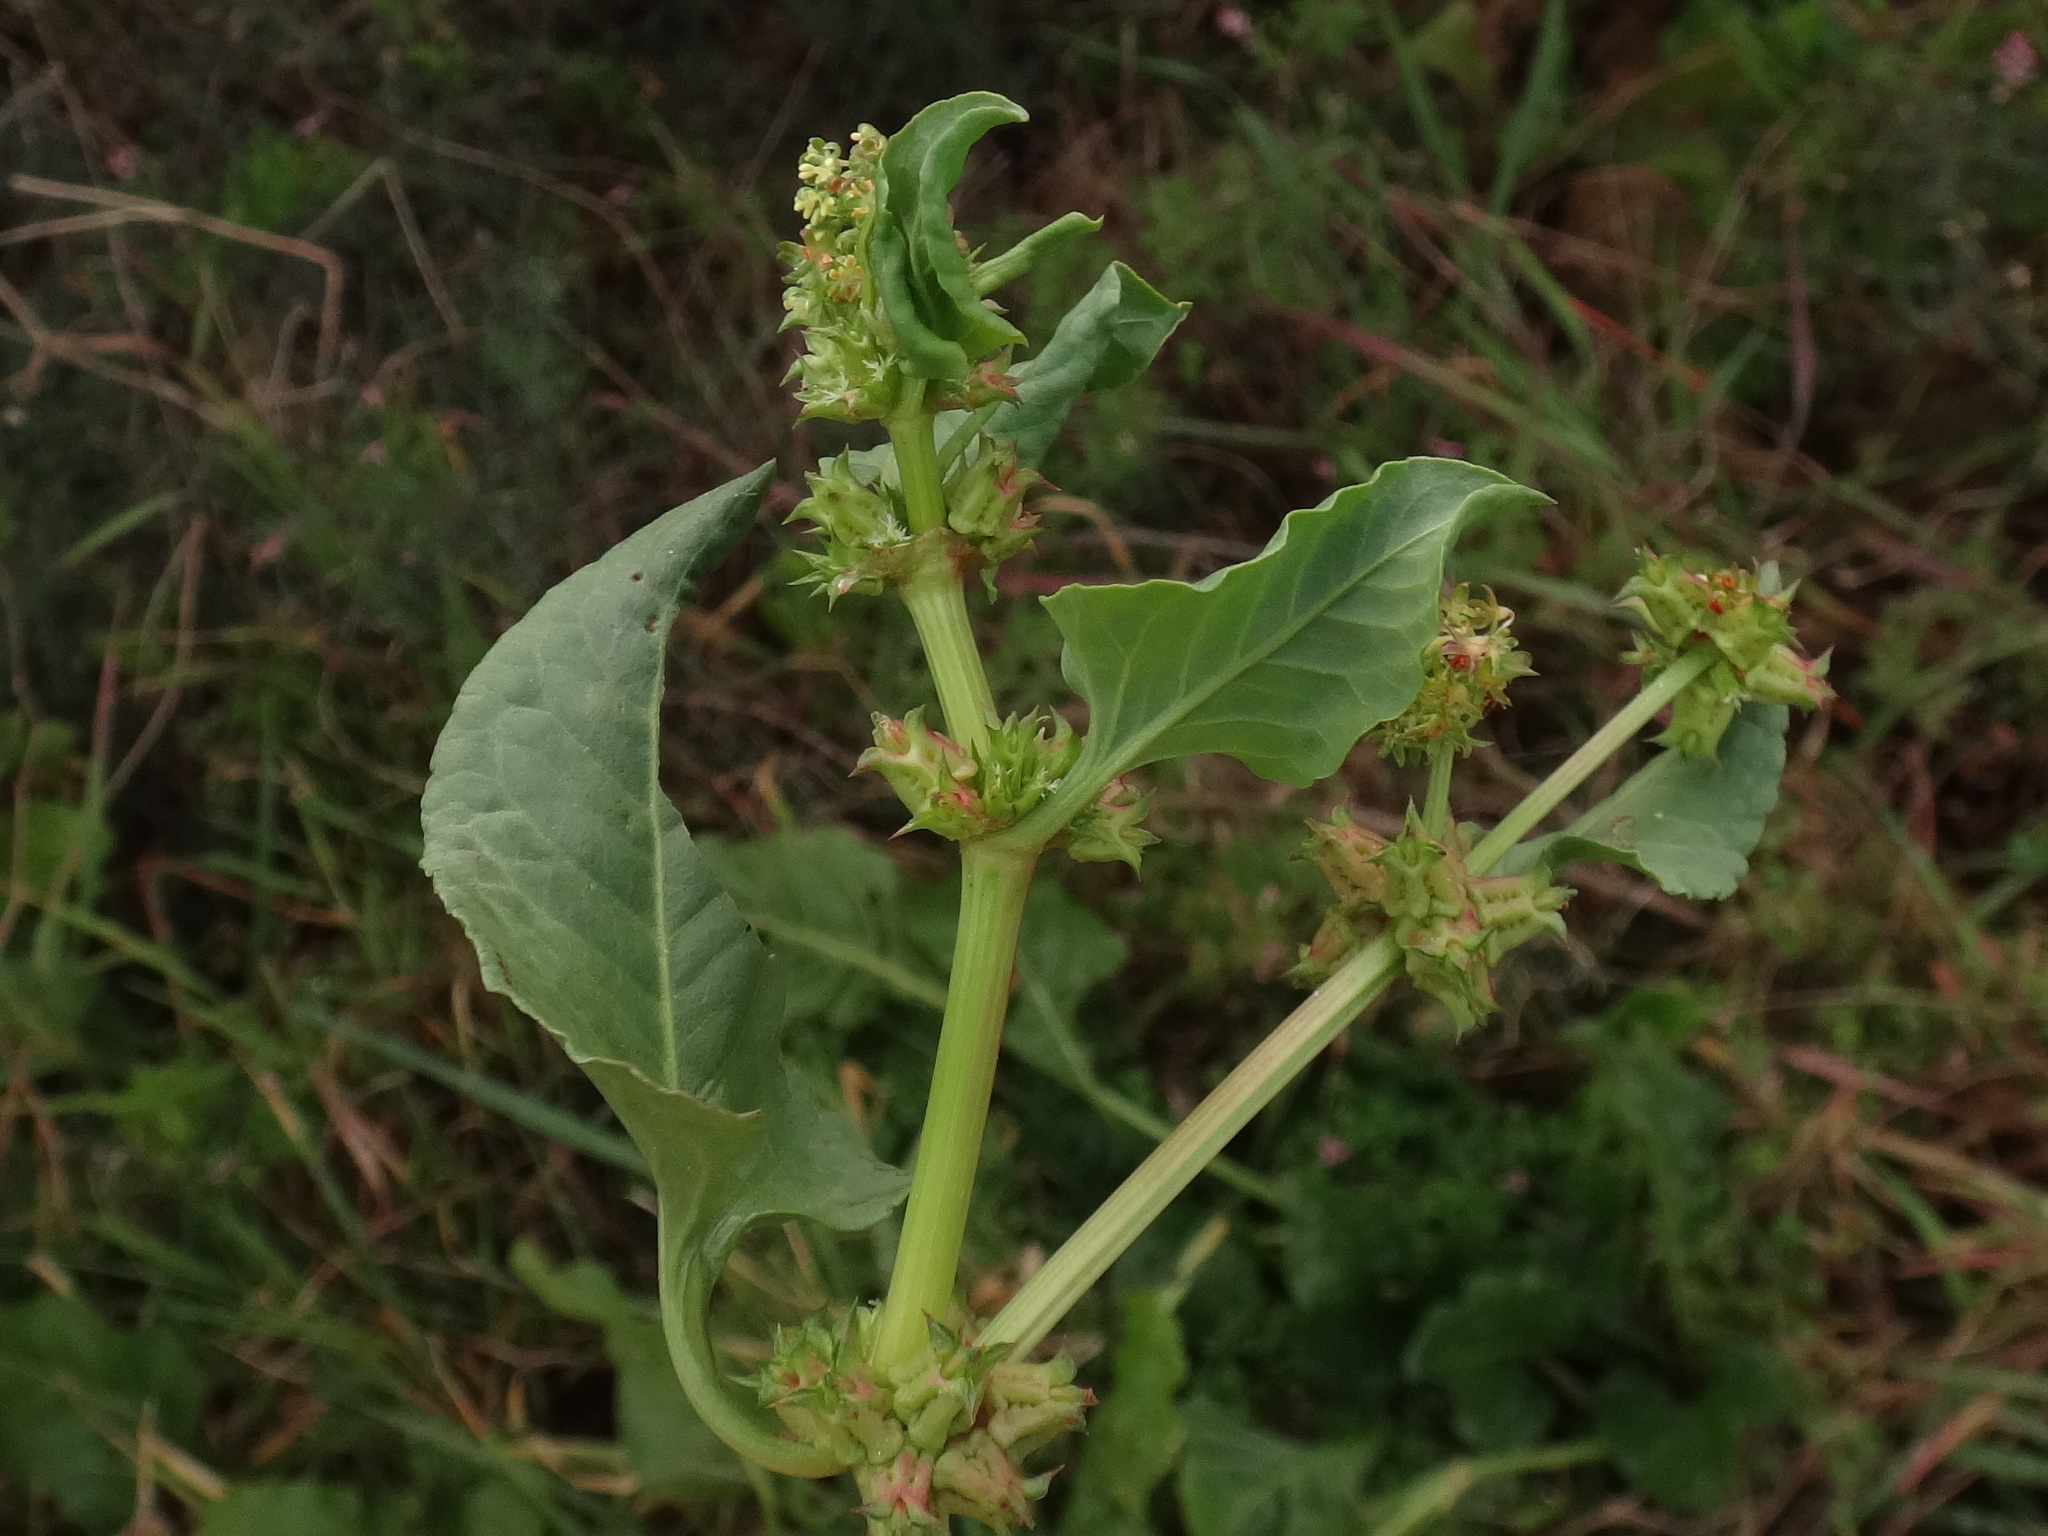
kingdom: Plantae
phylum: Tracheophyta
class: Magnoliopsida
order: Caryophyllales
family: Polygonaceae
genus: Rumex
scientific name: Rumex spinosus
